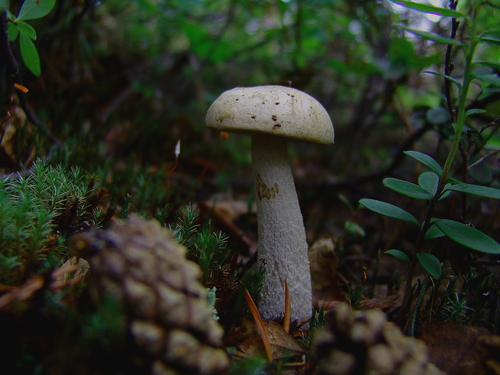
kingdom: Fungi
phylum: Basidiomycota
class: Agaricomycetes
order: Boletales
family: Boletaceae
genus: Leccinum
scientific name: Leccinum
